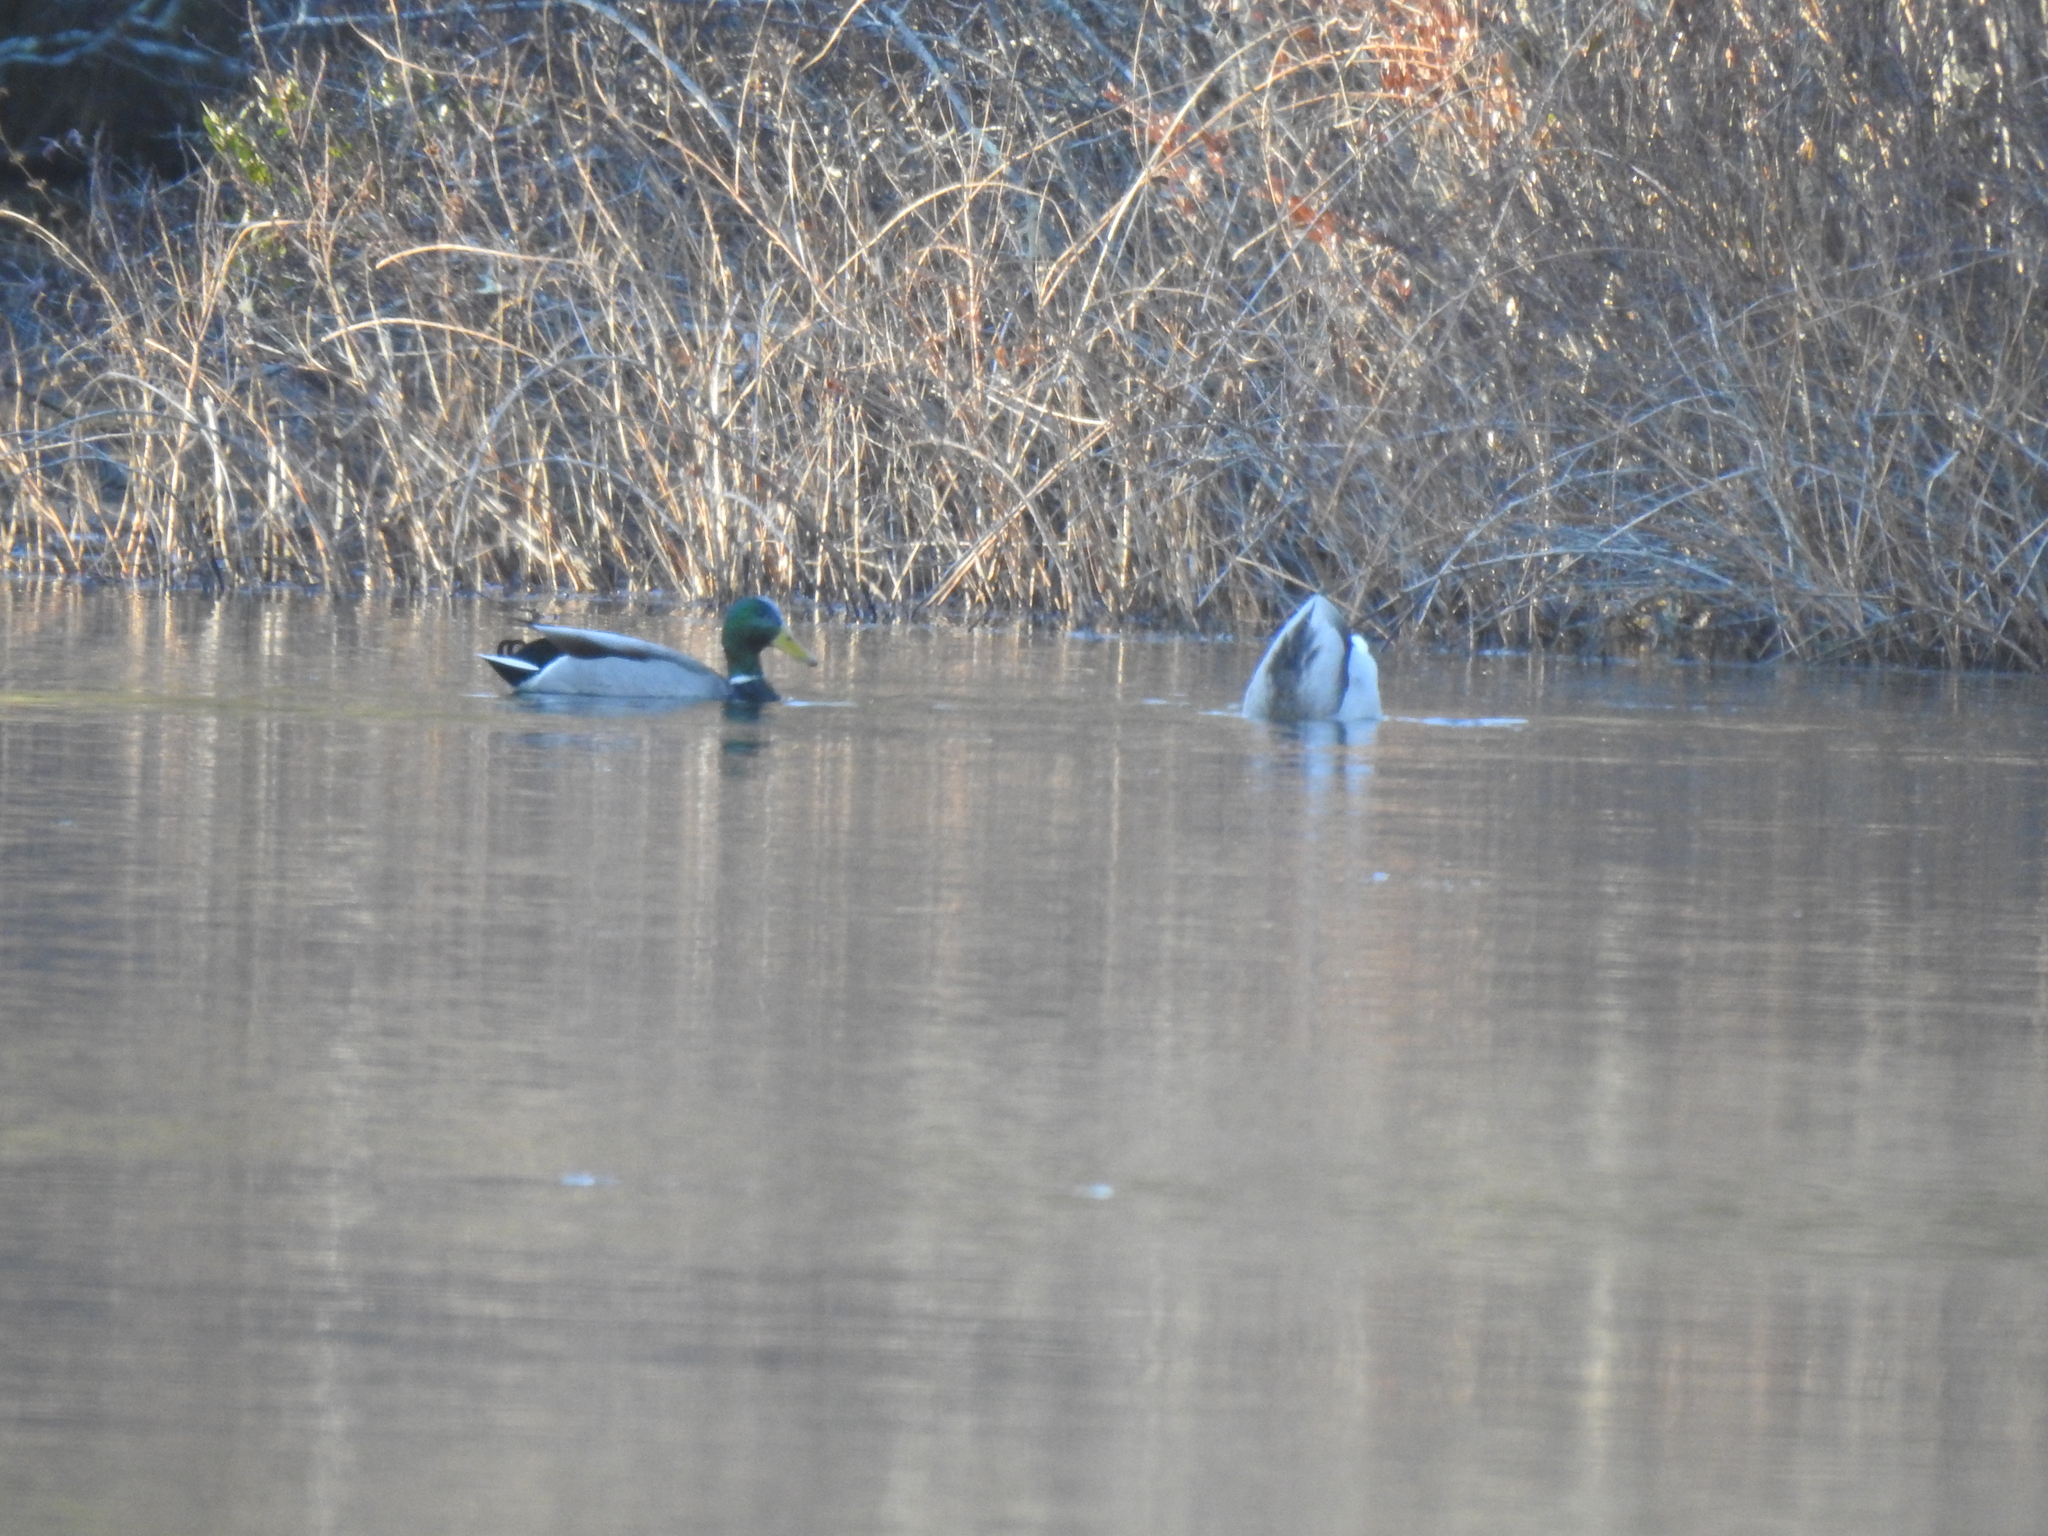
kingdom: Animalia
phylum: Chordata
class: Aves
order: Anseriformes
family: Anatidae
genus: Anas
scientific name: Anas platyrhynchos
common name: Mallard
